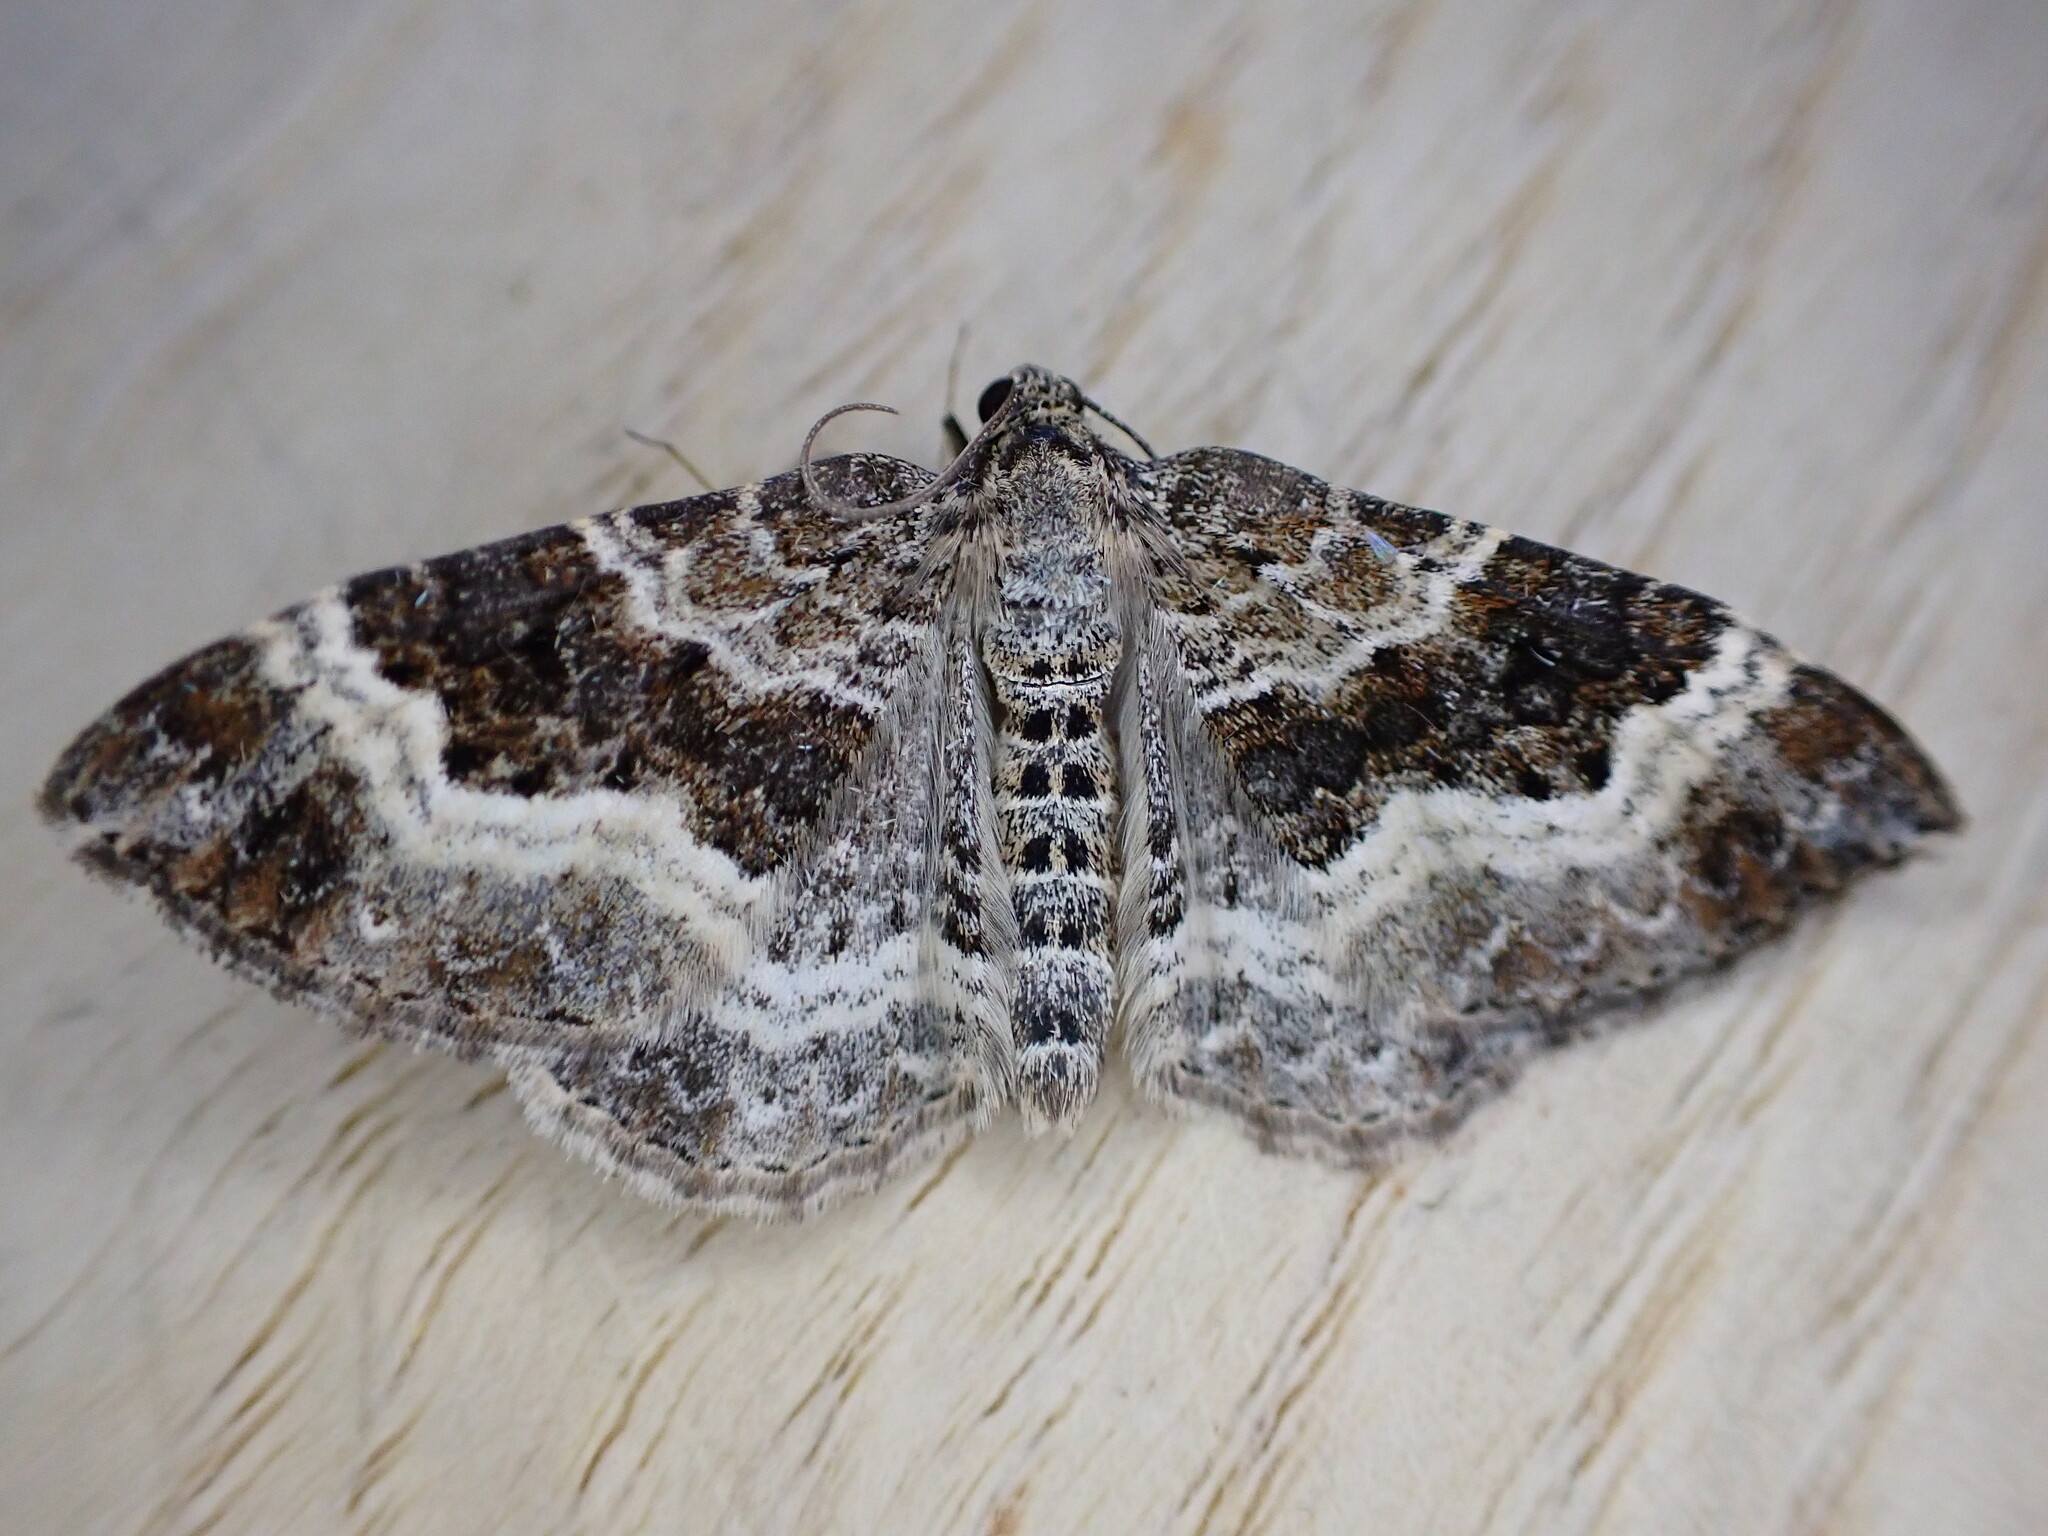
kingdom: Animalia
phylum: Arthropoda
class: Insecta
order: Lepidoptera
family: Geometridae
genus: Epirrhoe
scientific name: Epirrhoe alternata
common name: Common carpet
